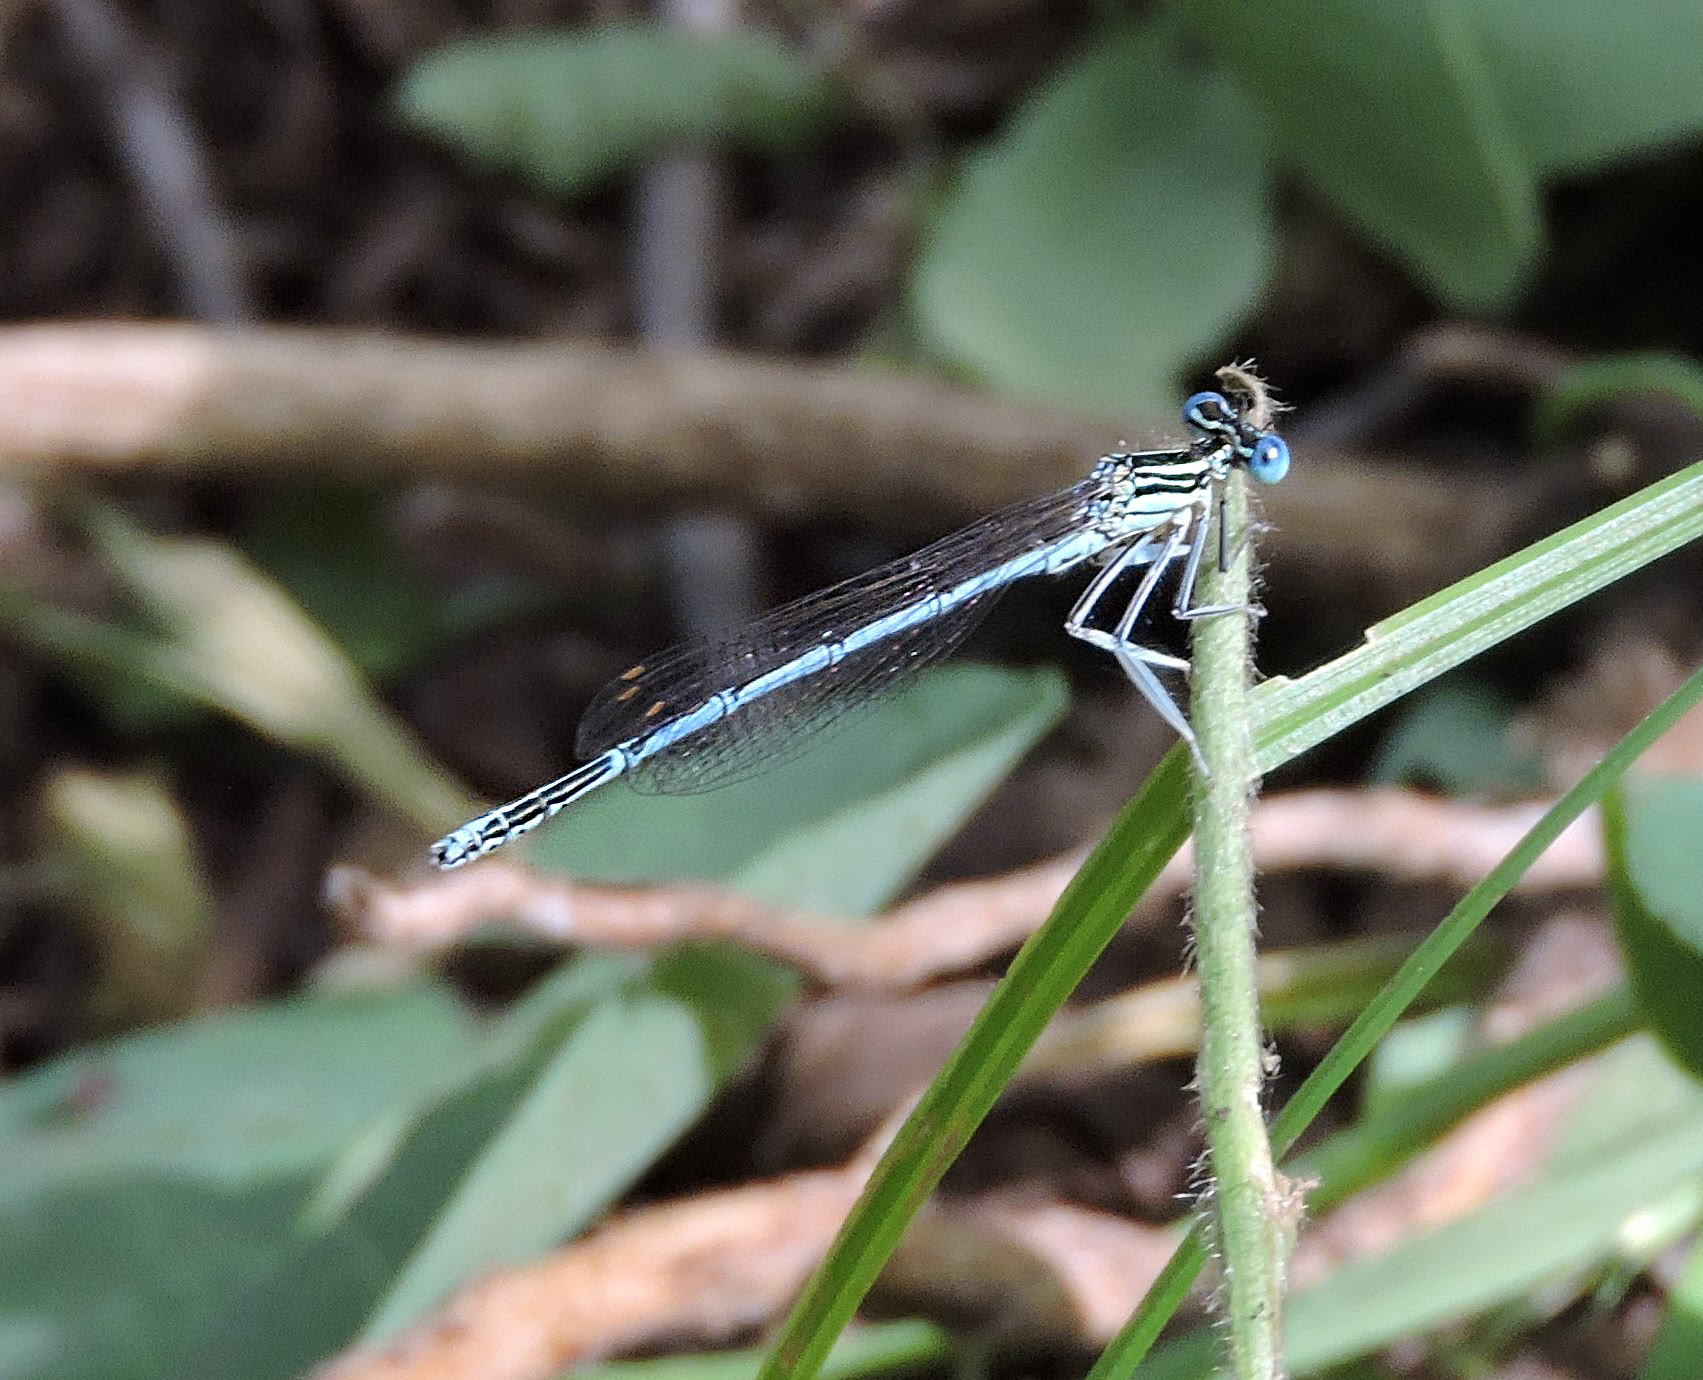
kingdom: Animalia
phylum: Arthropoda
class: Insecta
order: Odonata
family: Platycnemididae
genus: Platycnemis
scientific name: Platycnemis pennipes
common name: White-legged damselfly
